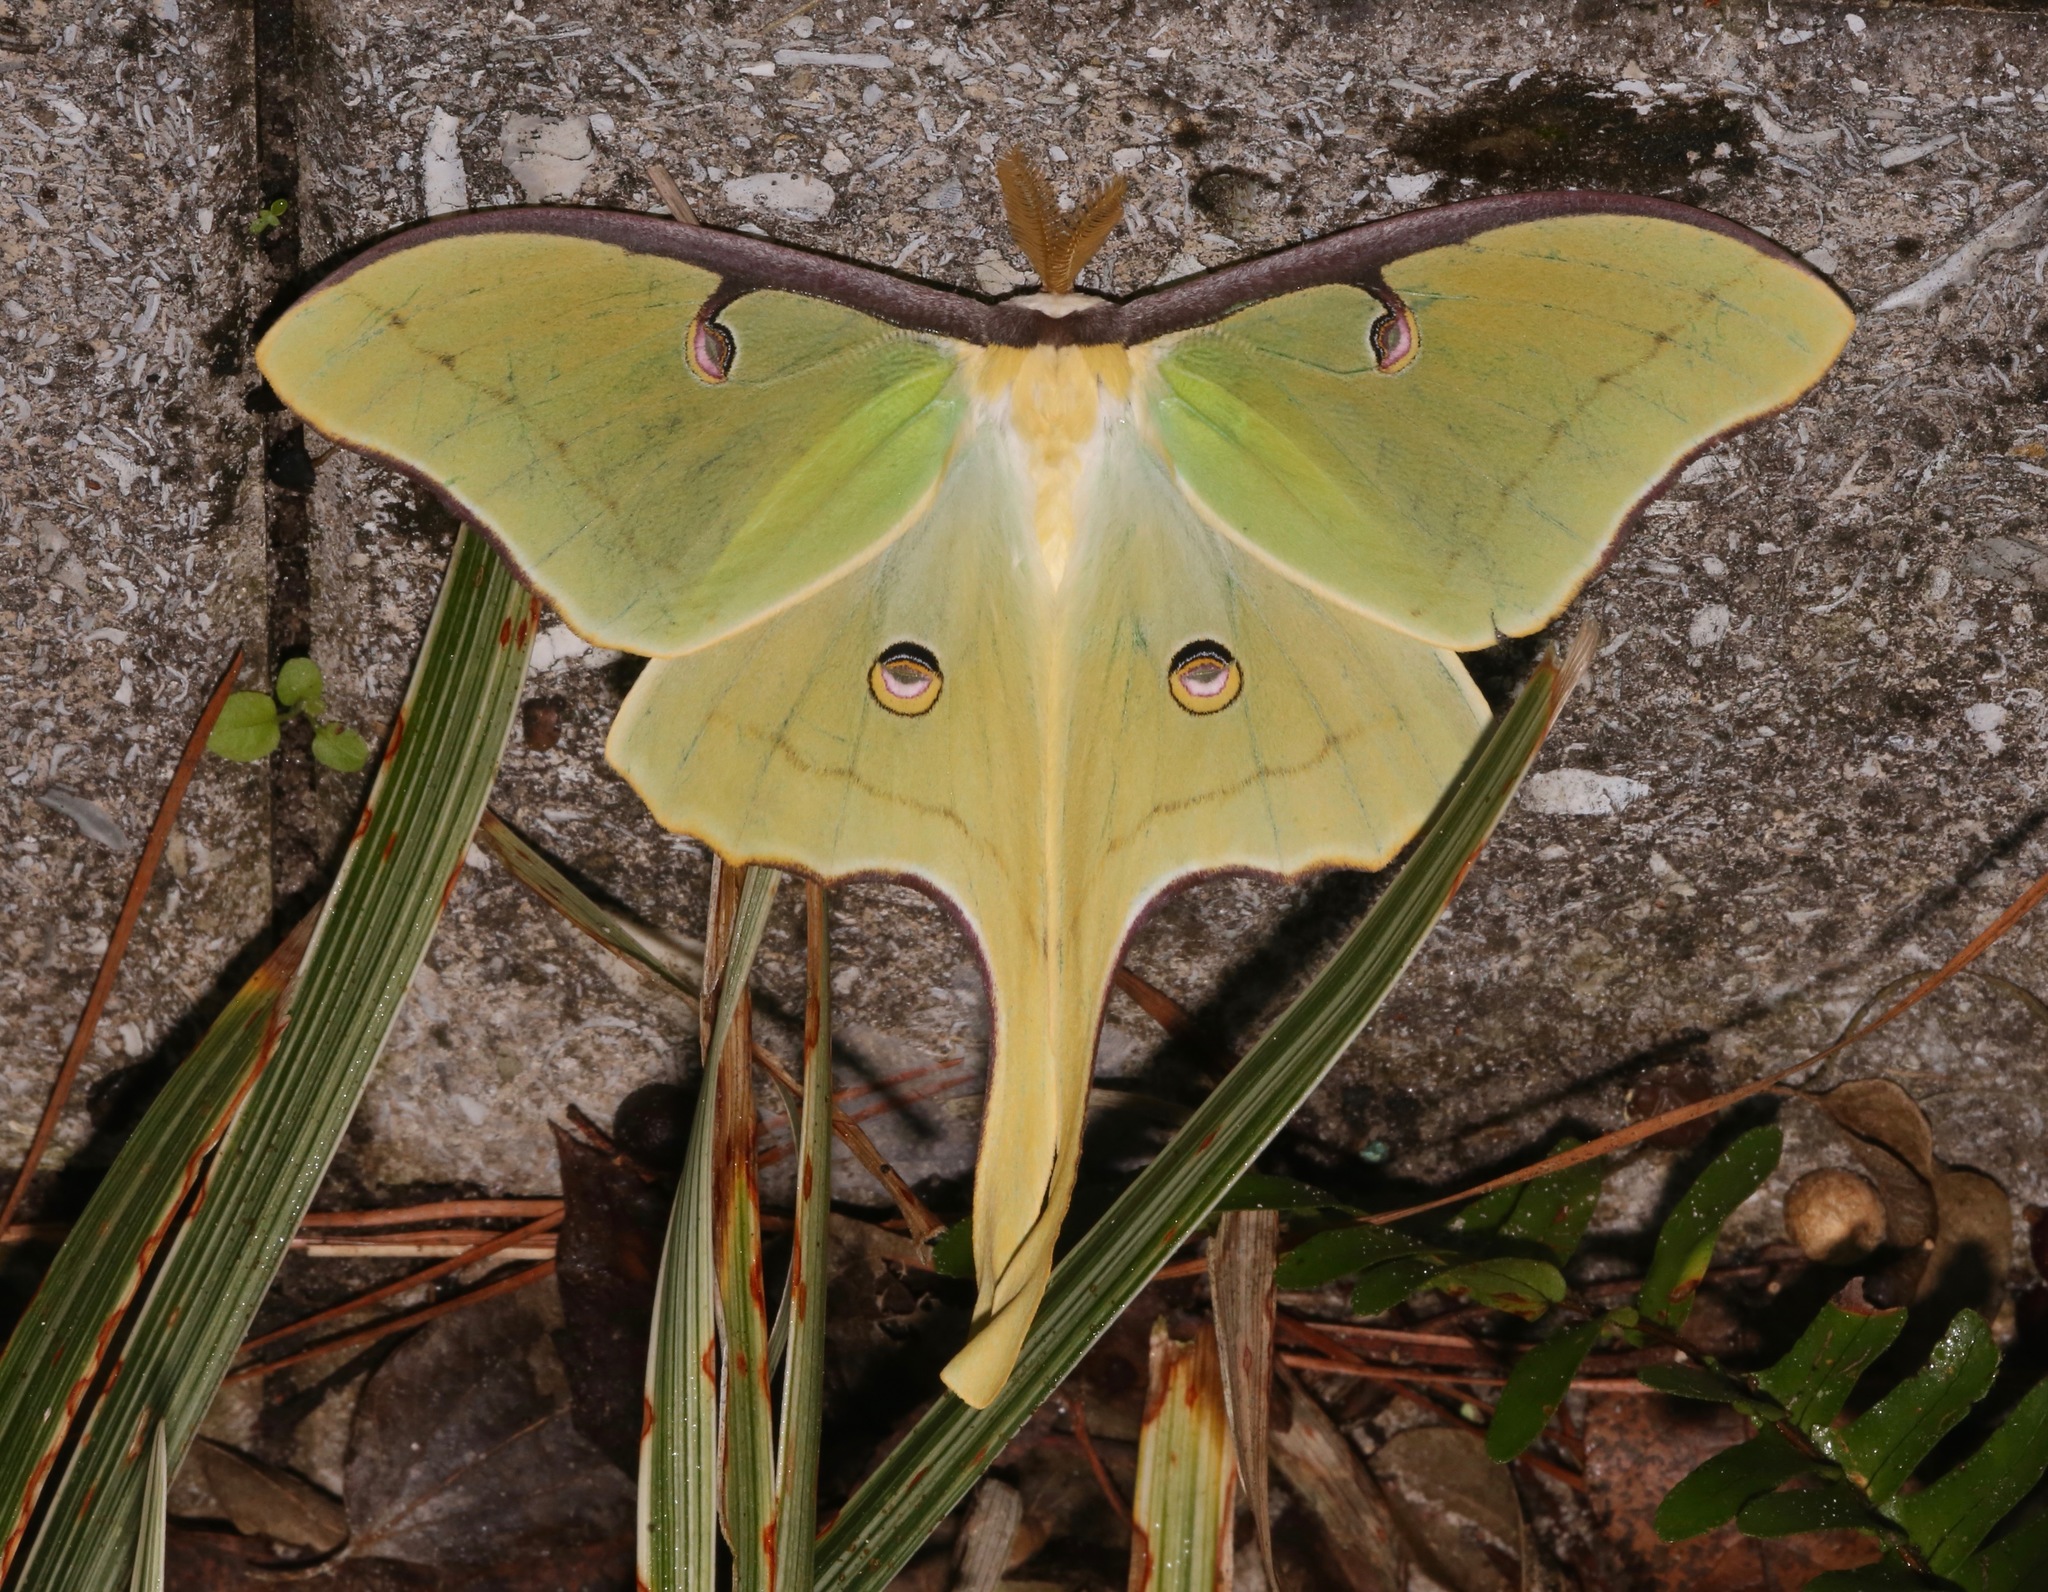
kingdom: Animalia
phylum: Arthropoda
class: Insecta
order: Lepidoptera
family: Saturniidae
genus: Actias
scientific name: Actias luna
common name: Luna moth
